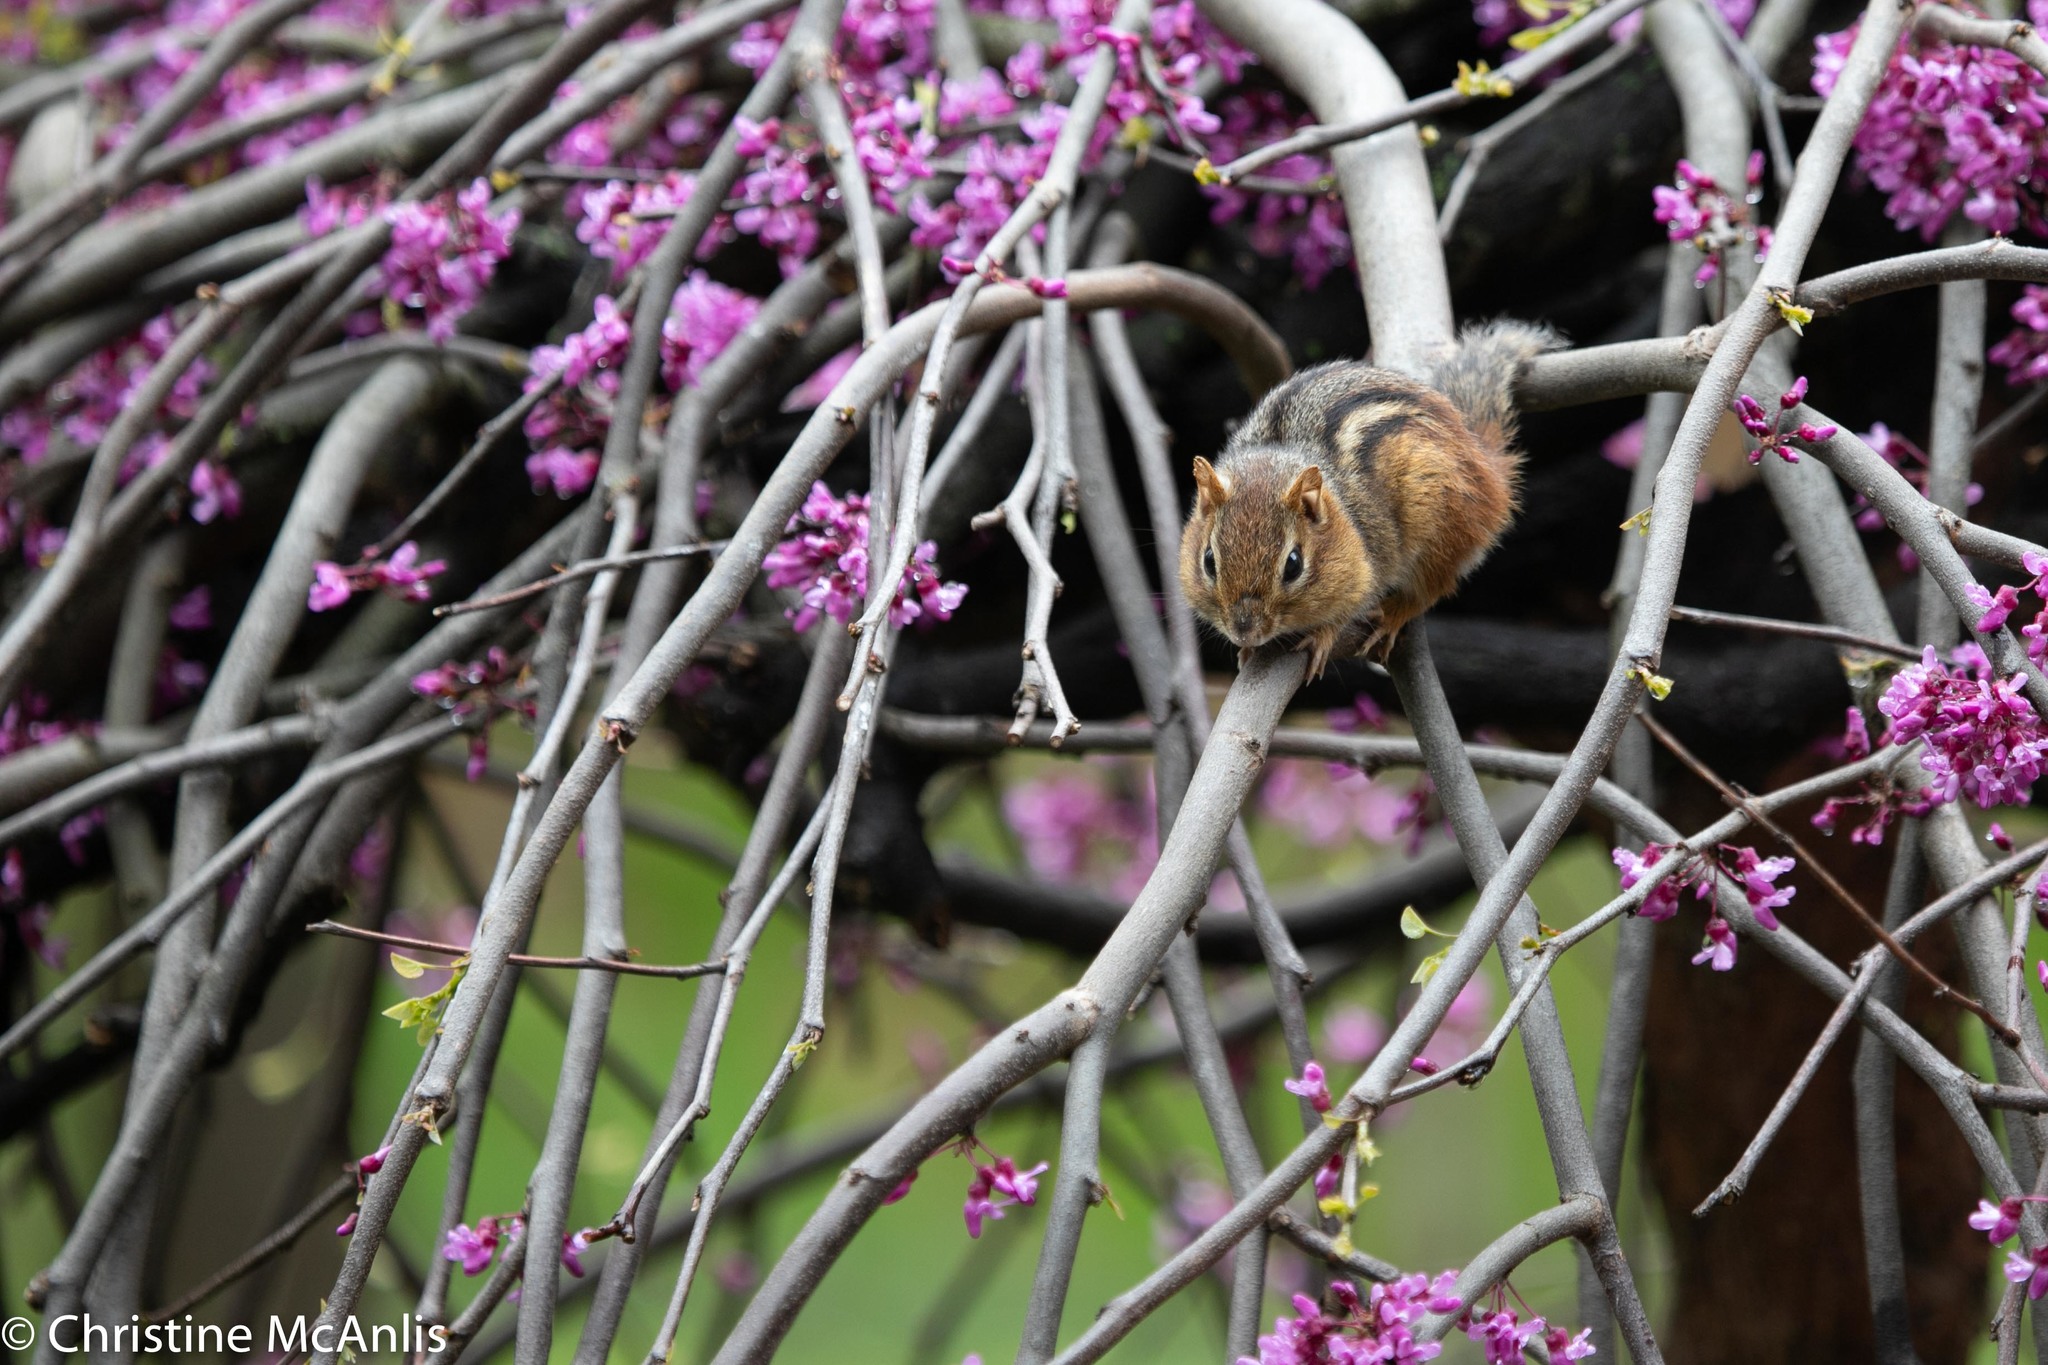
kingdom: Animalia
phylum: Chordata
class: Mammalia
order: Rodentia
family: Sciuridae
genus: Tamias
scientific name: Tamias striatus
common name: Eastern chipmunk
